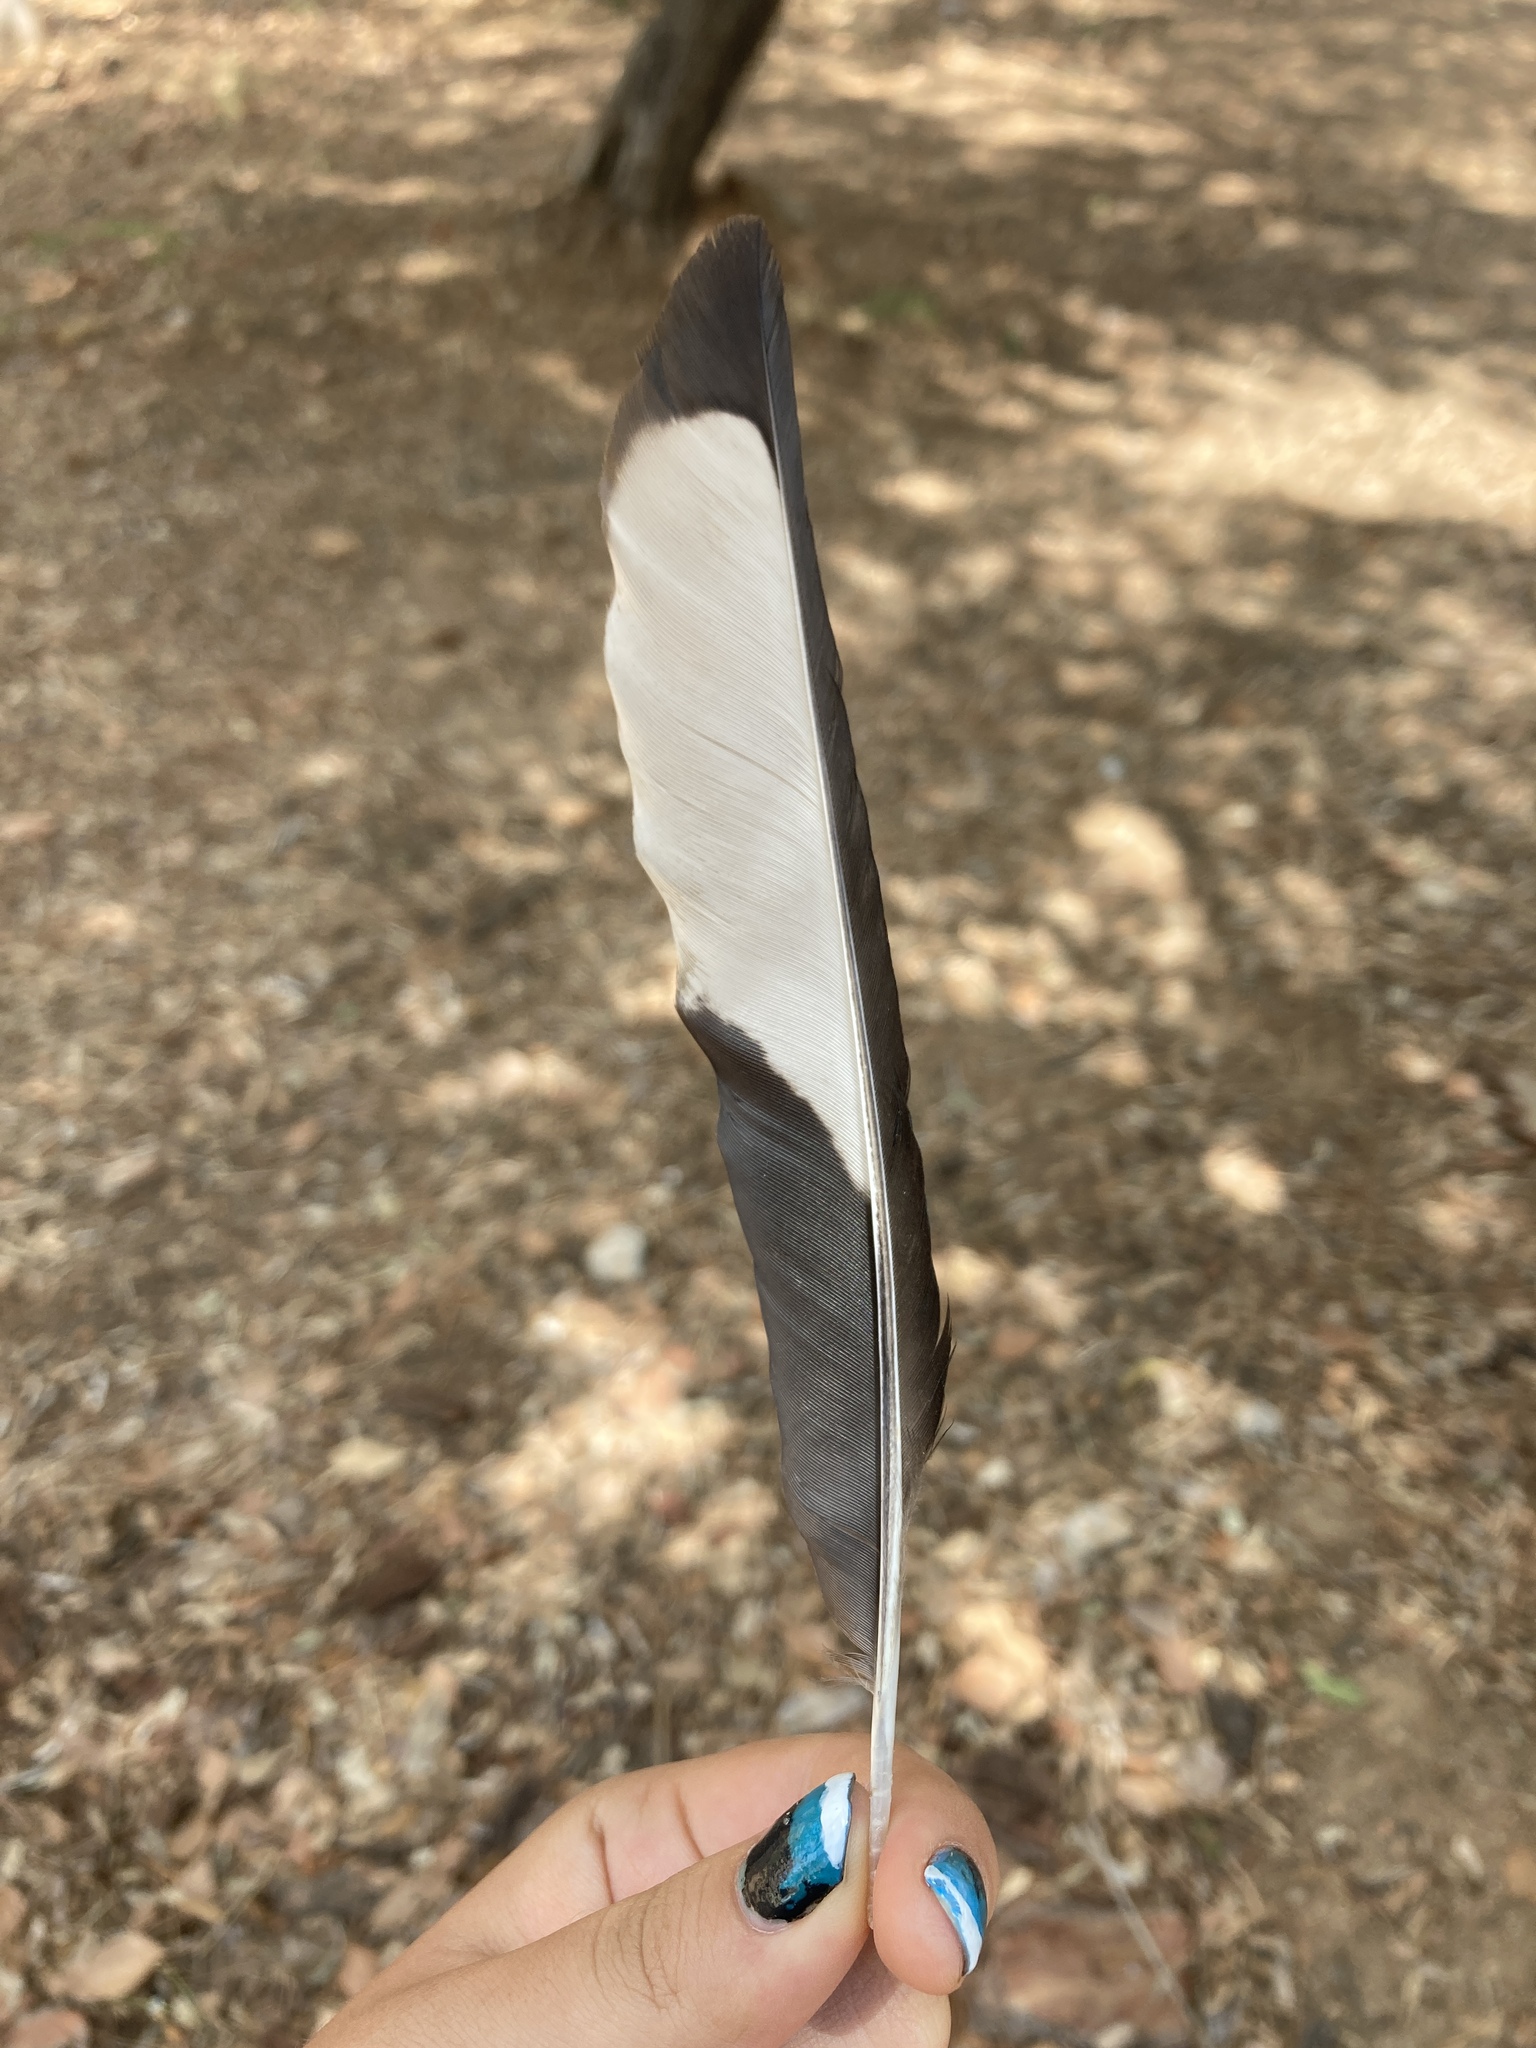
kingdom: Animalia
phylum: Chordata
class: Aves
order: Passeriformes
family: Corvidae
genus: Pica
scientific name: Pica pica
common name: Eurasian magpie
